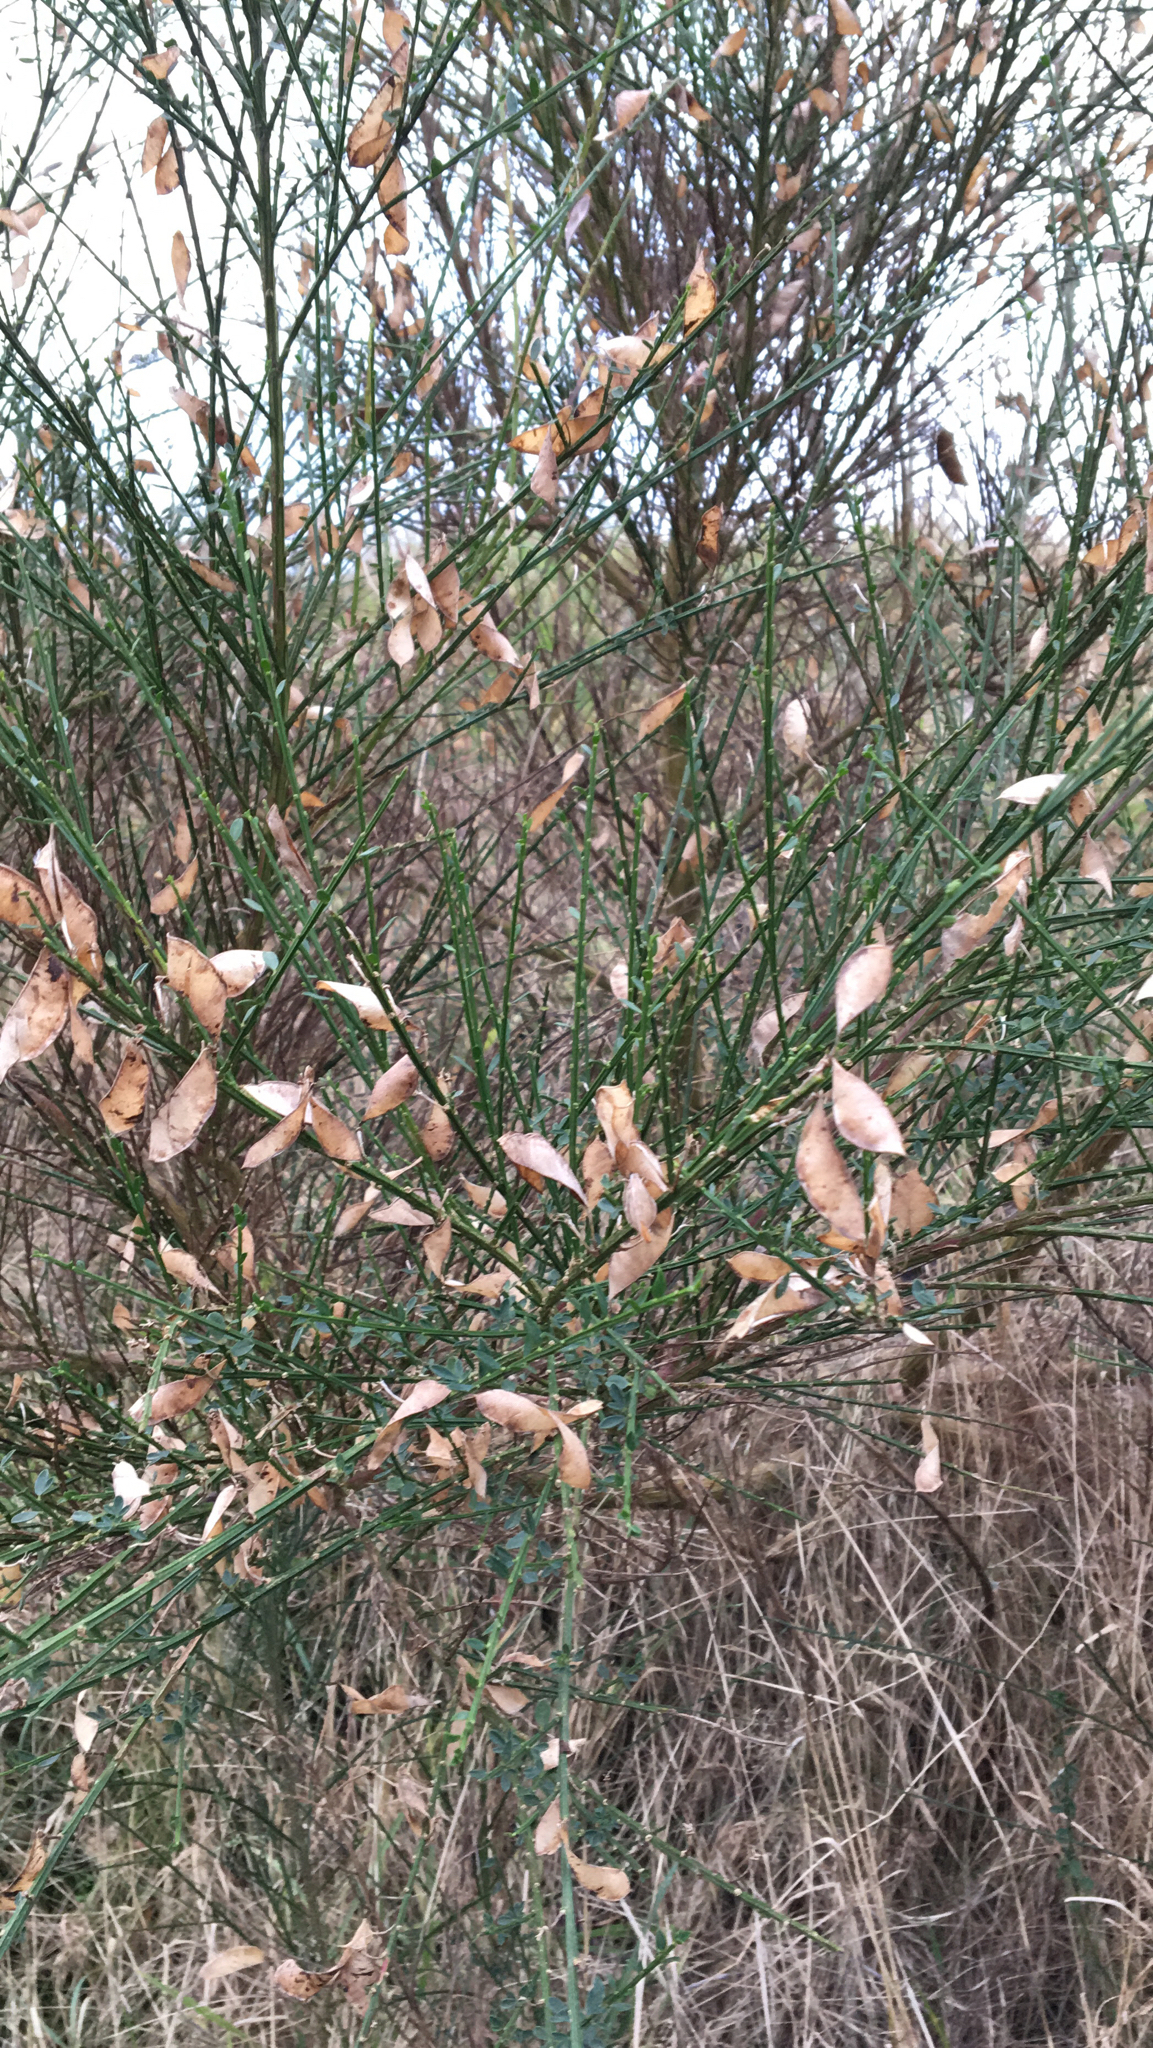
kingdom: Plantae
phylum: Tracheophyta
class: Magnoliopsida
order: Fabales
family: Fabaceae
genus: Cytisus
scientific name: Cytisus scoparius
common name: Scotch broom
